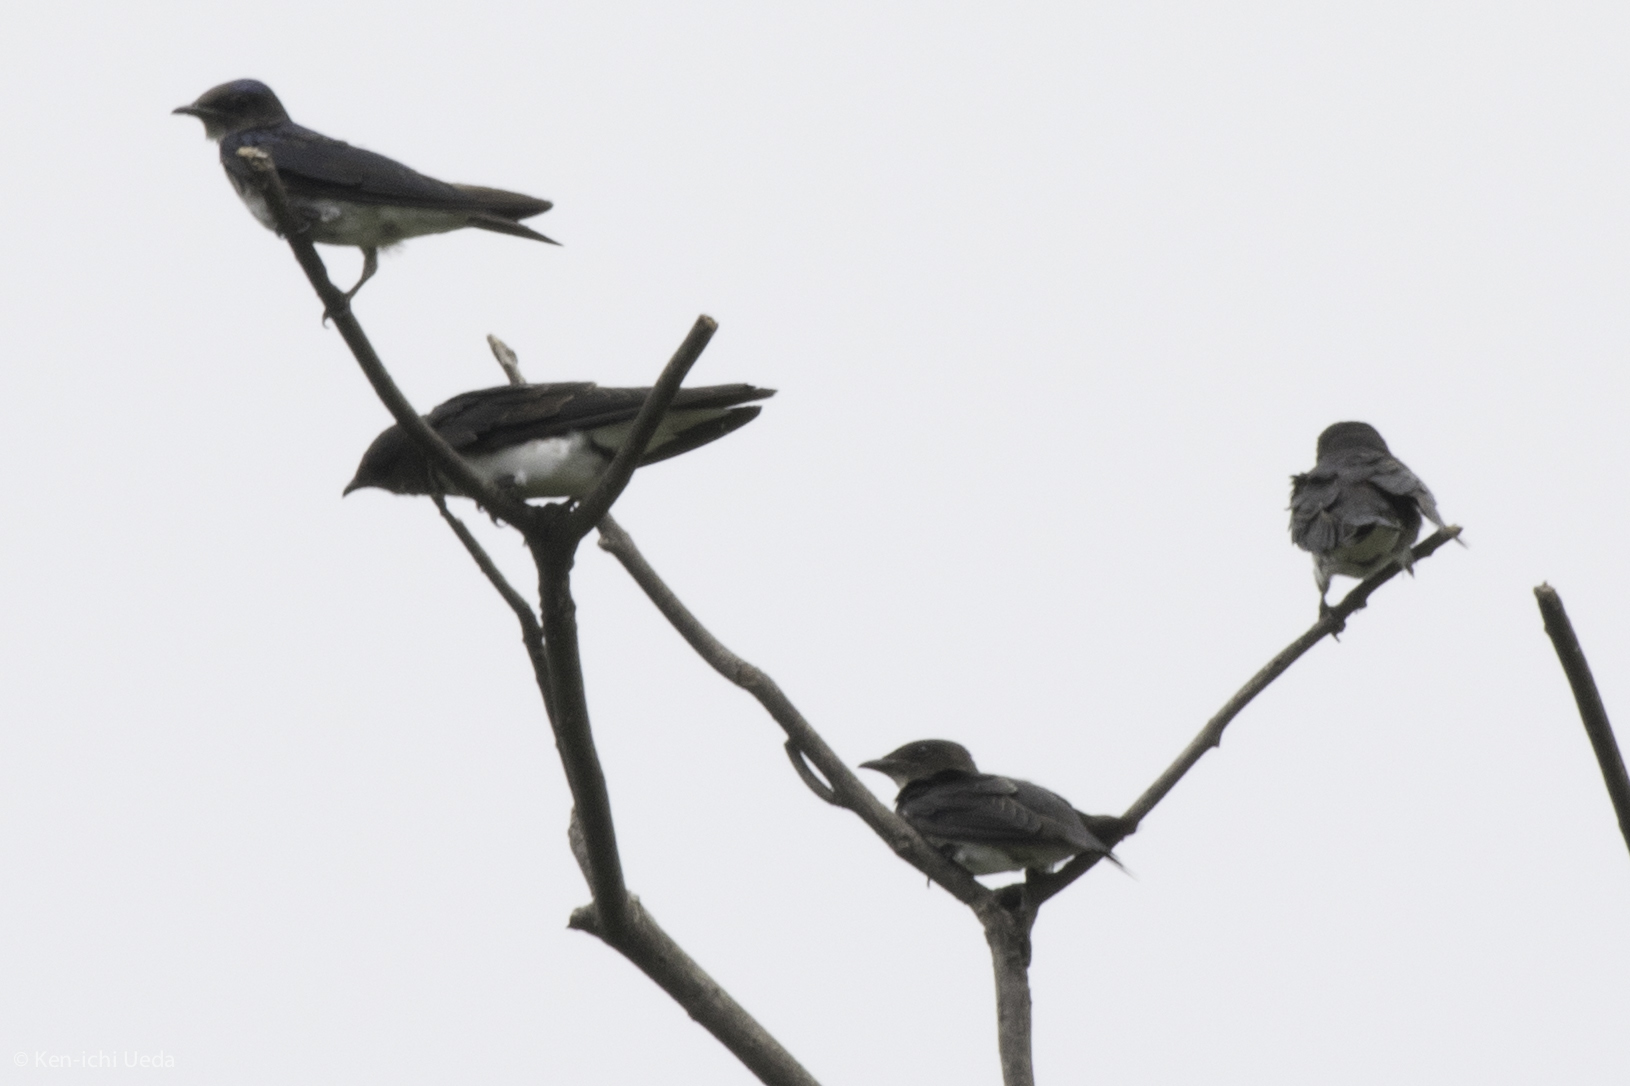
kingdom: Animalia
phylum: Chordata
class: Aves
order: Passeriformes
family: Hirundinidae
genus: Progne
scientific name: Progne chalybea
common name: Grey-breasted martin
